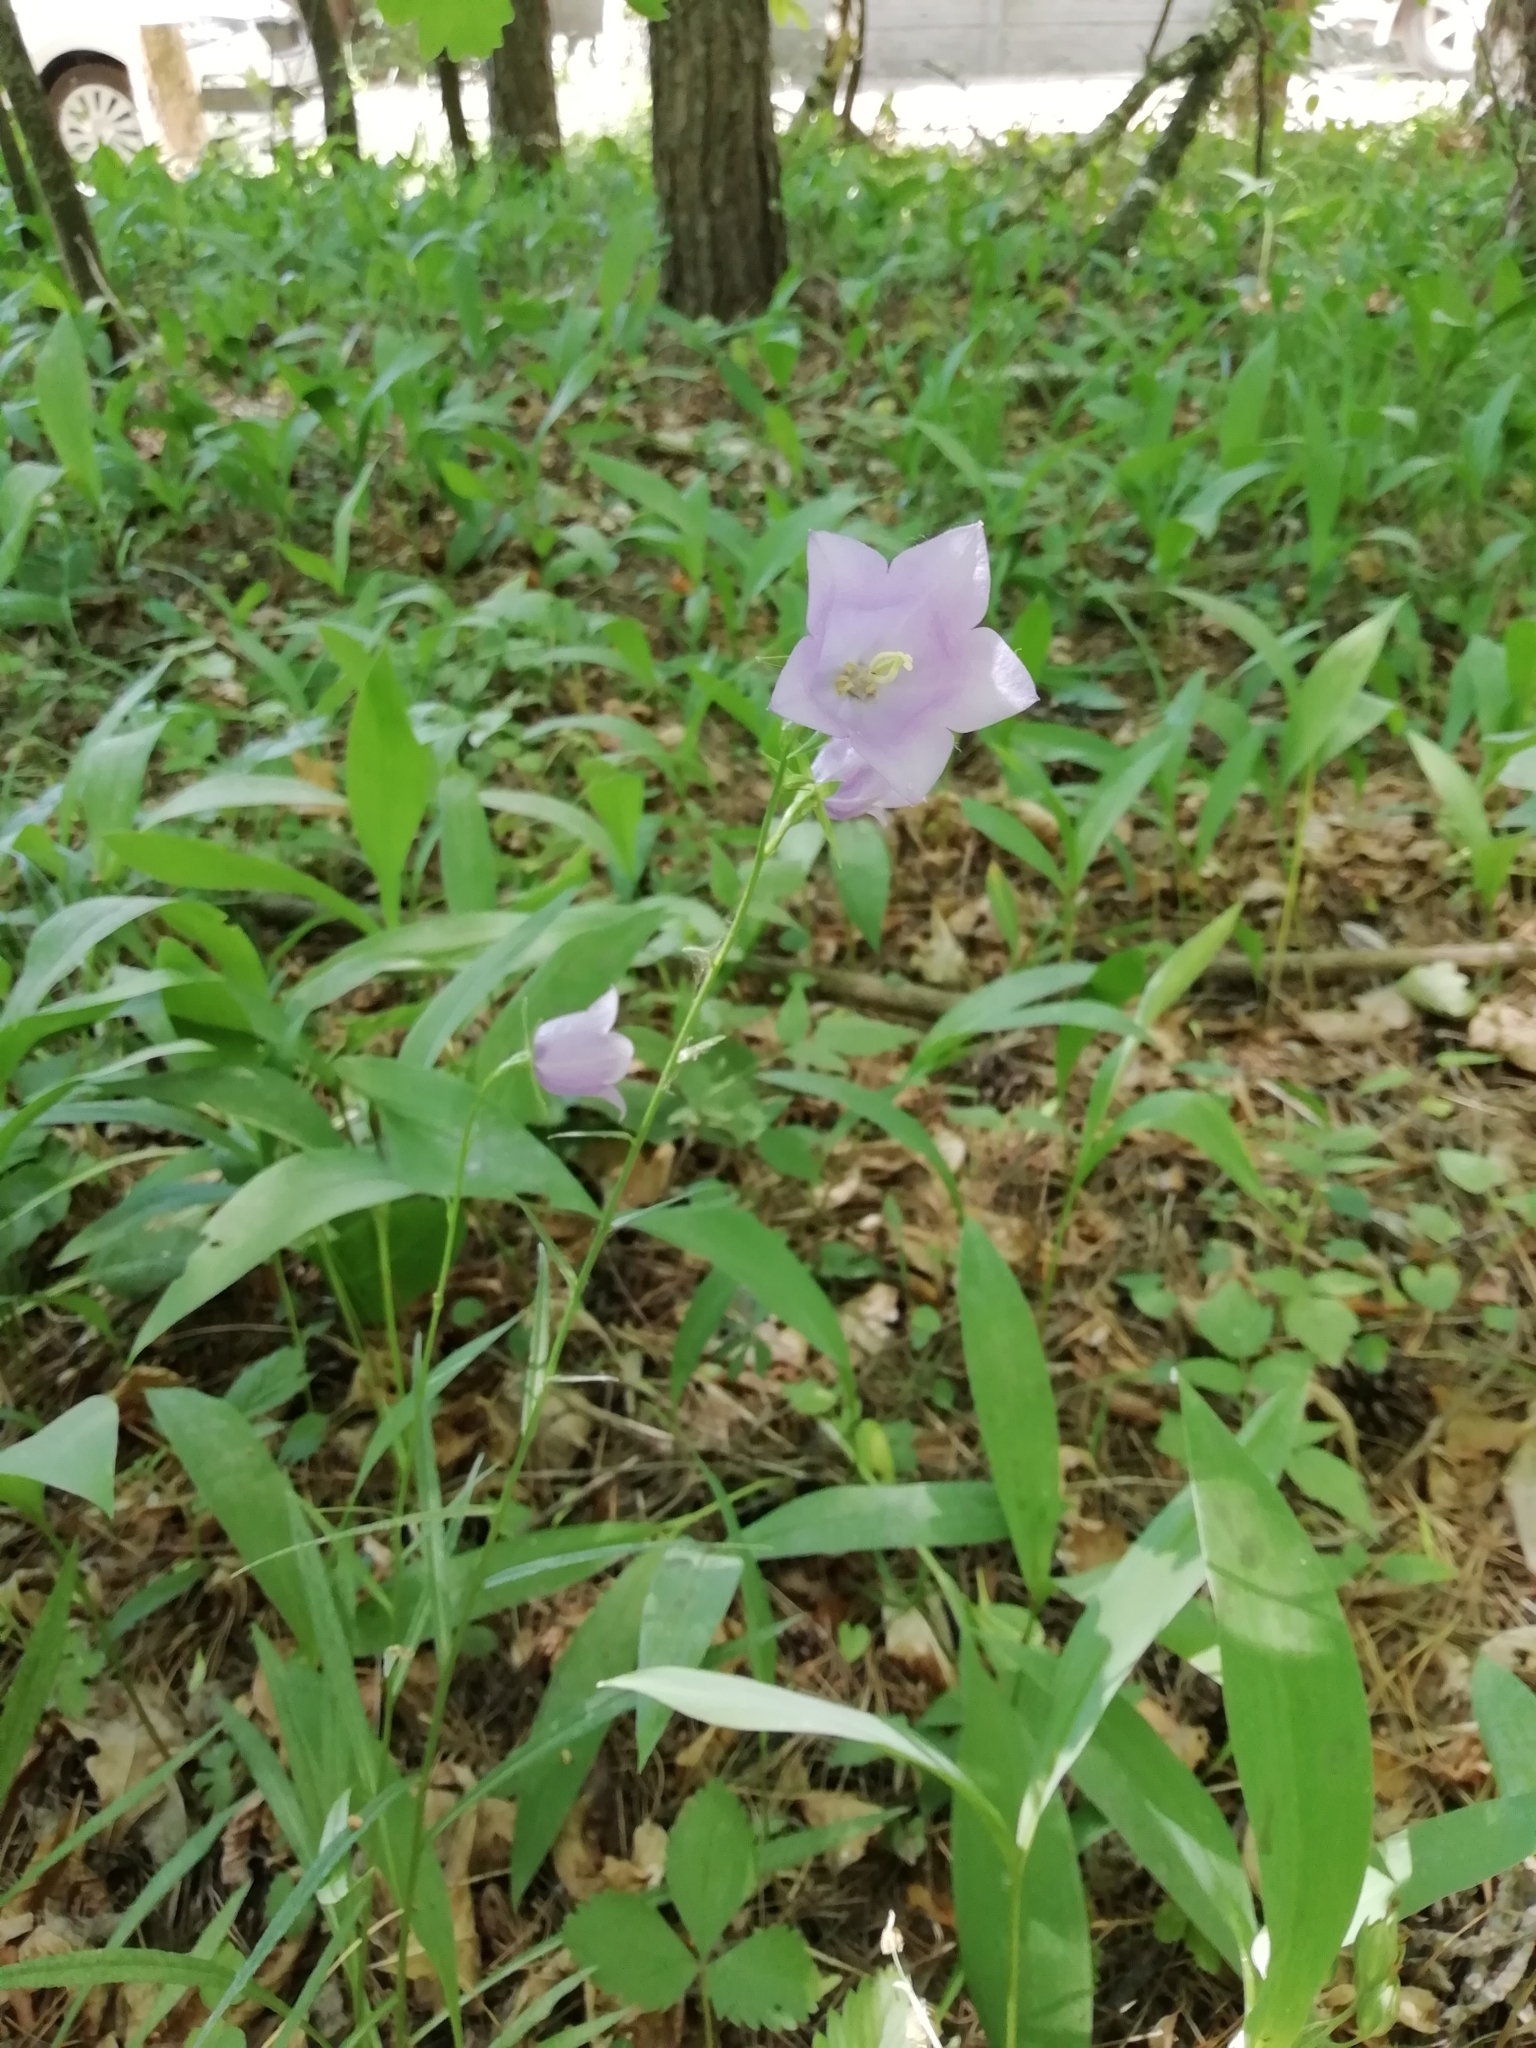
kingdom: Plantae
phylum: Tracheophyta
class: Magnoliopsida
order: Asterales
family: Campanulaceae
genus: Campanula
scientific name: Campanula persicifolia
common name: Peach-leaved bellflower
